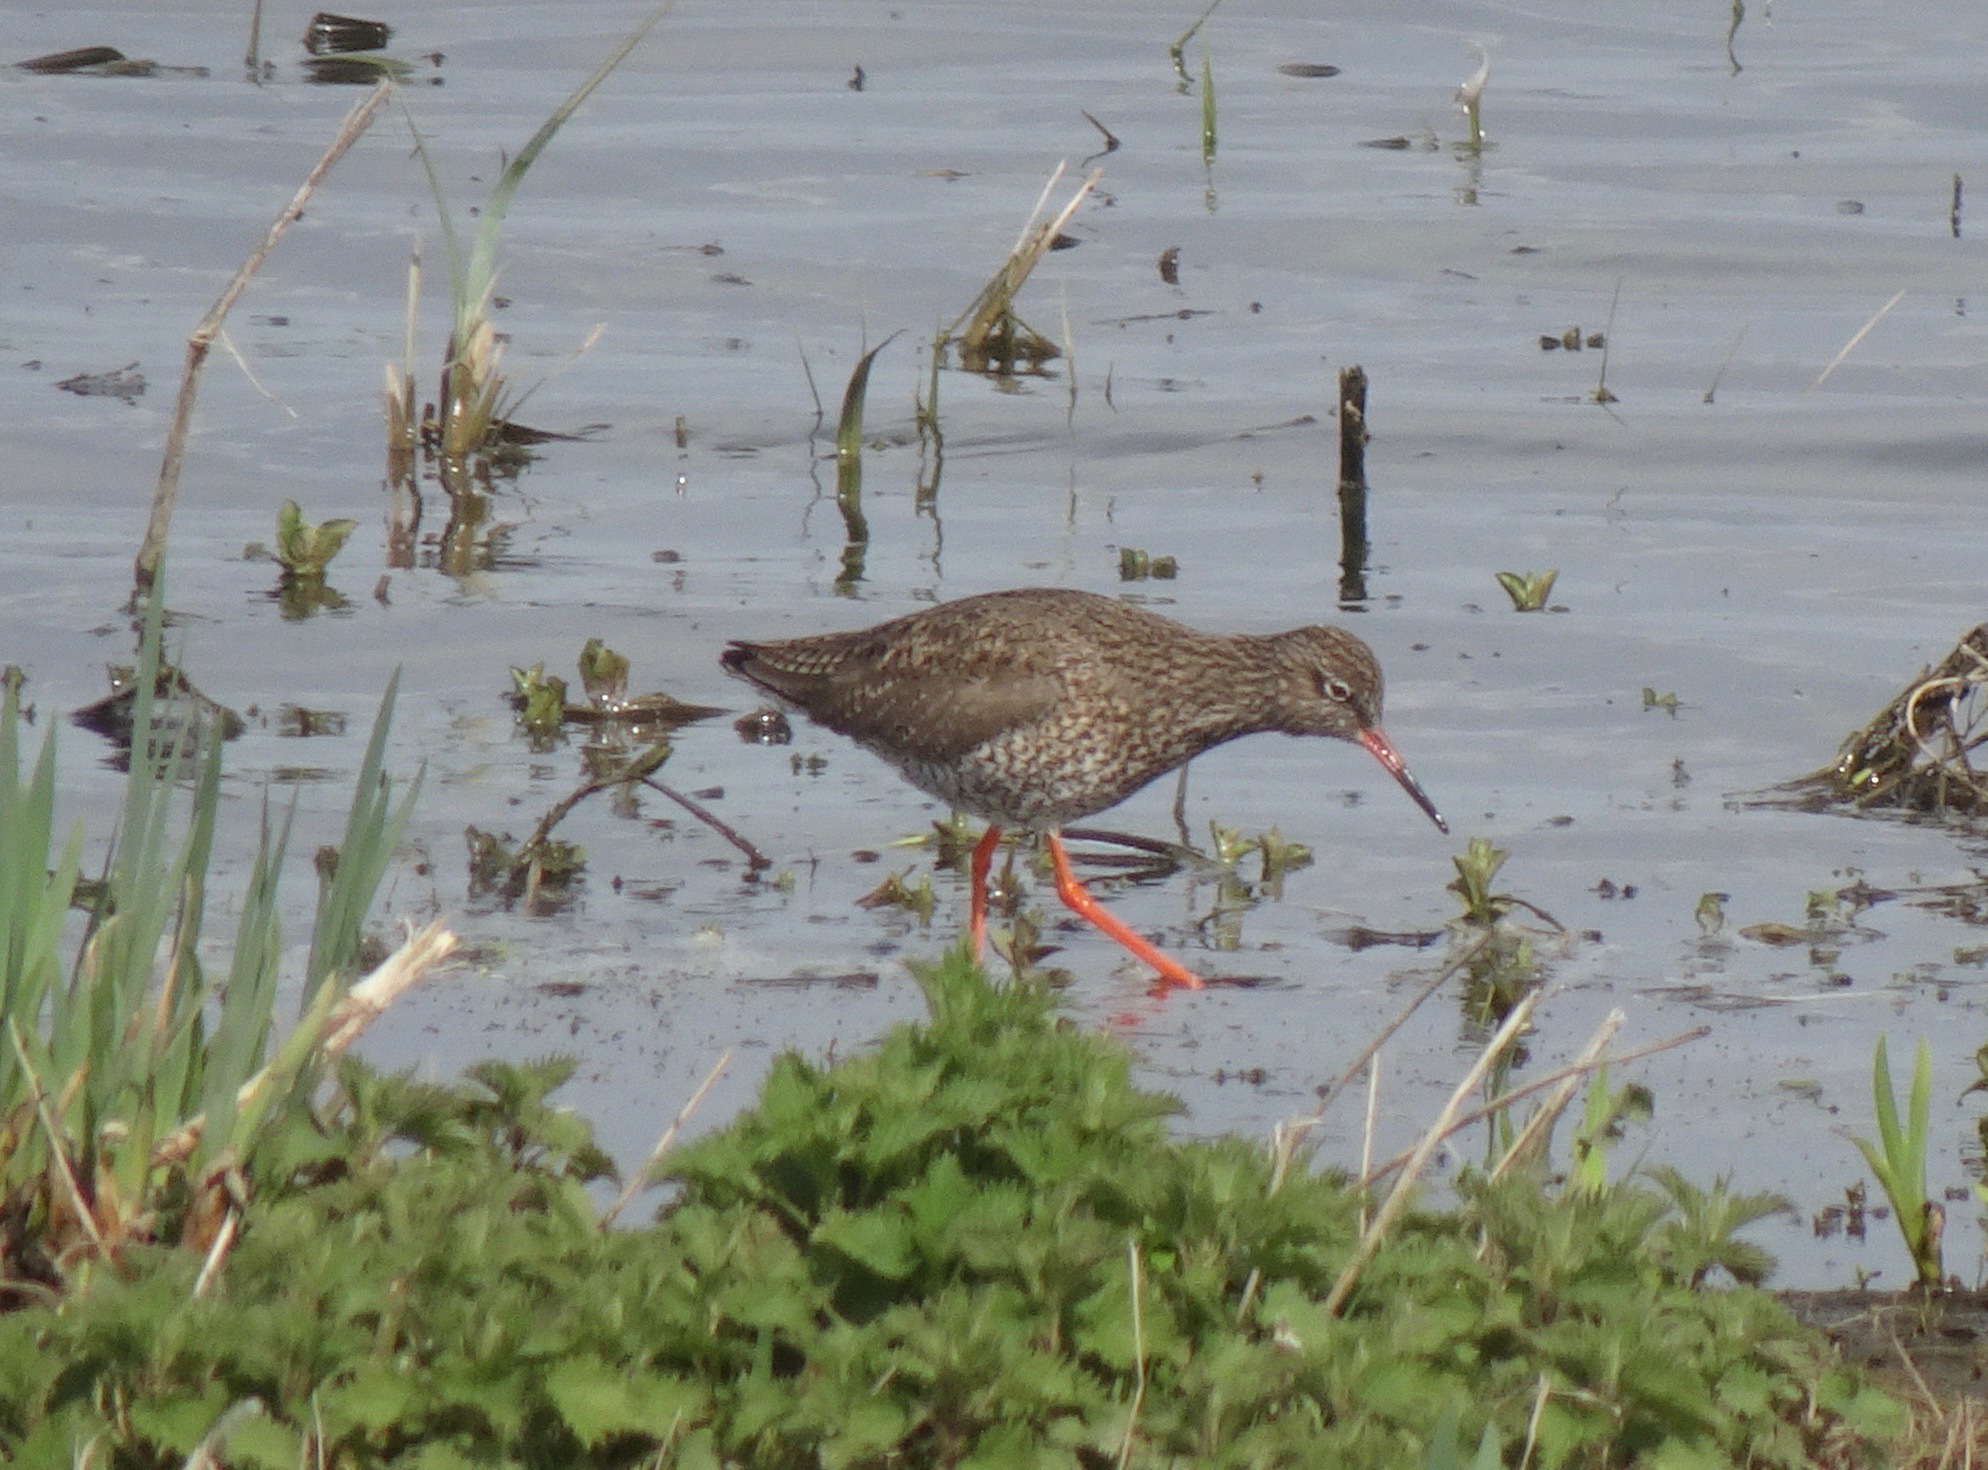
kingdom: Animalia
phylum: Chordata
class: Aves
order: Charadriiformes
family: Scolopacidae
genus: Tringa
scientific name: Tringa totanus
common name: Common redshank
